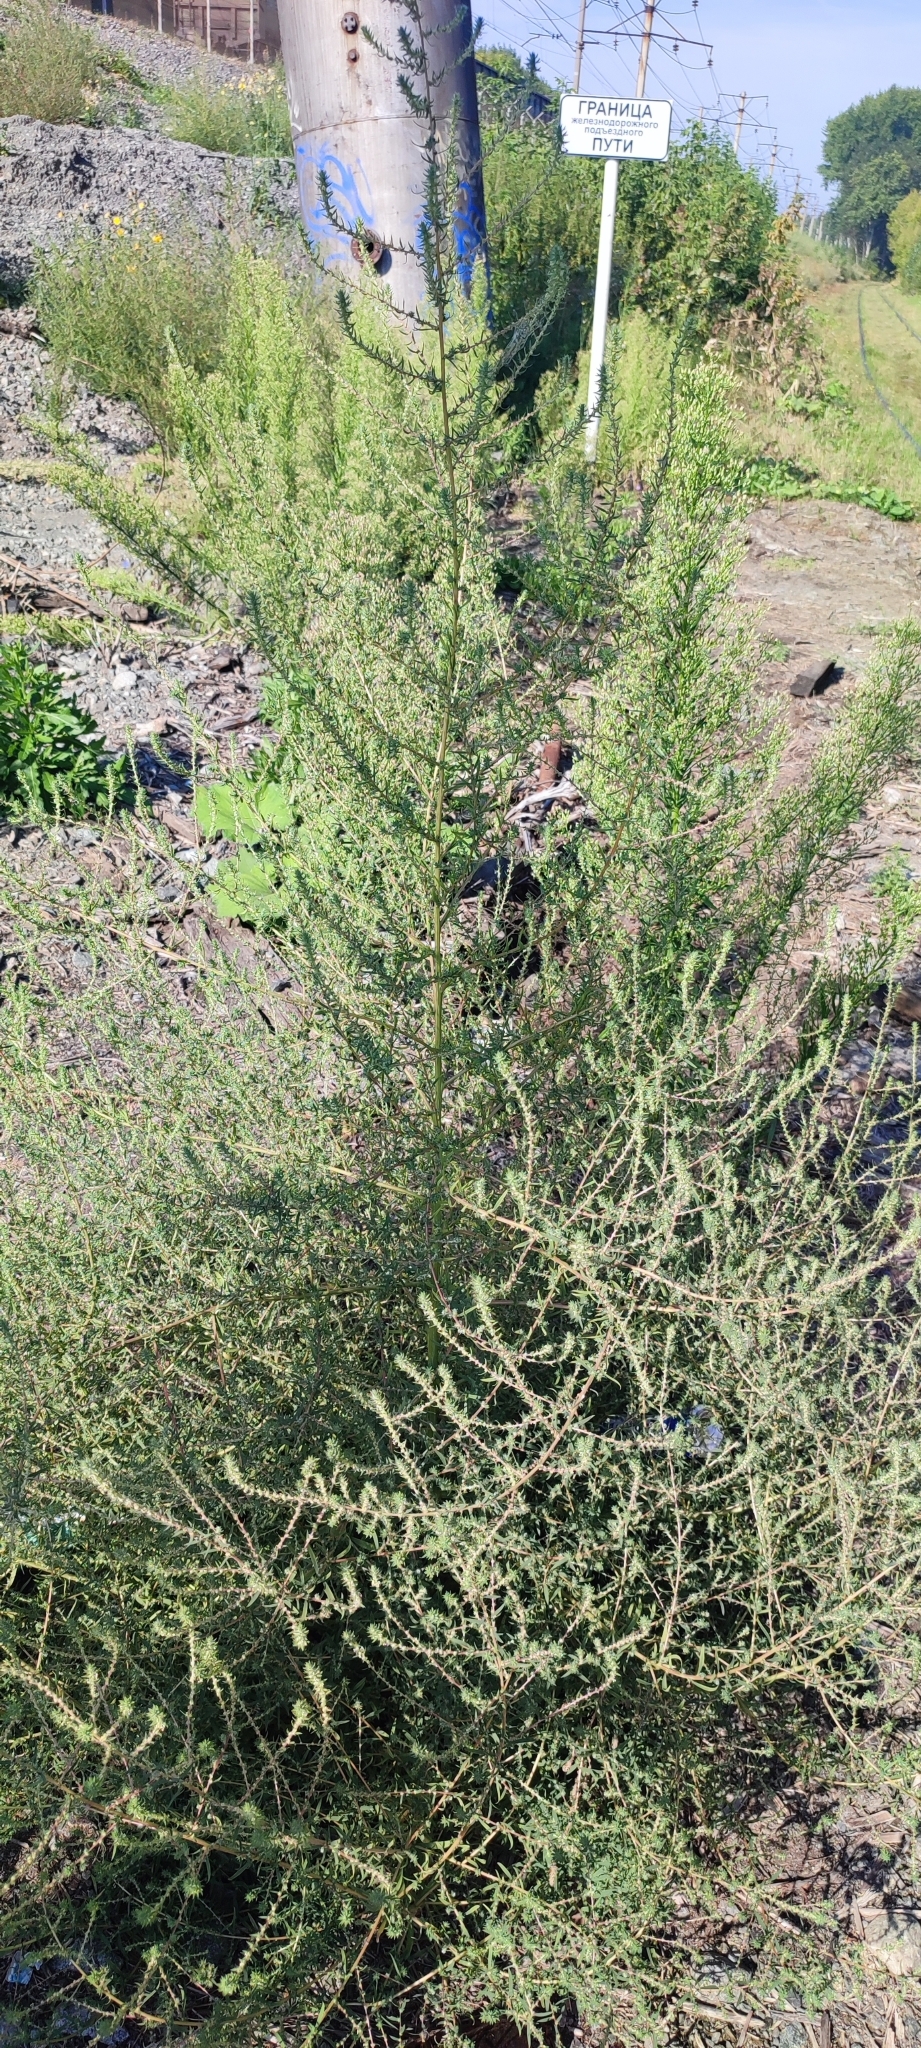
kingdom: Plantae
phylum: Tracheophyta
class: Magnoliopsida
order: Caryophyllales
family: Amaranthaceae
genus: Bassia
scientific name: Bassia scoparia
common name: Belvedere
